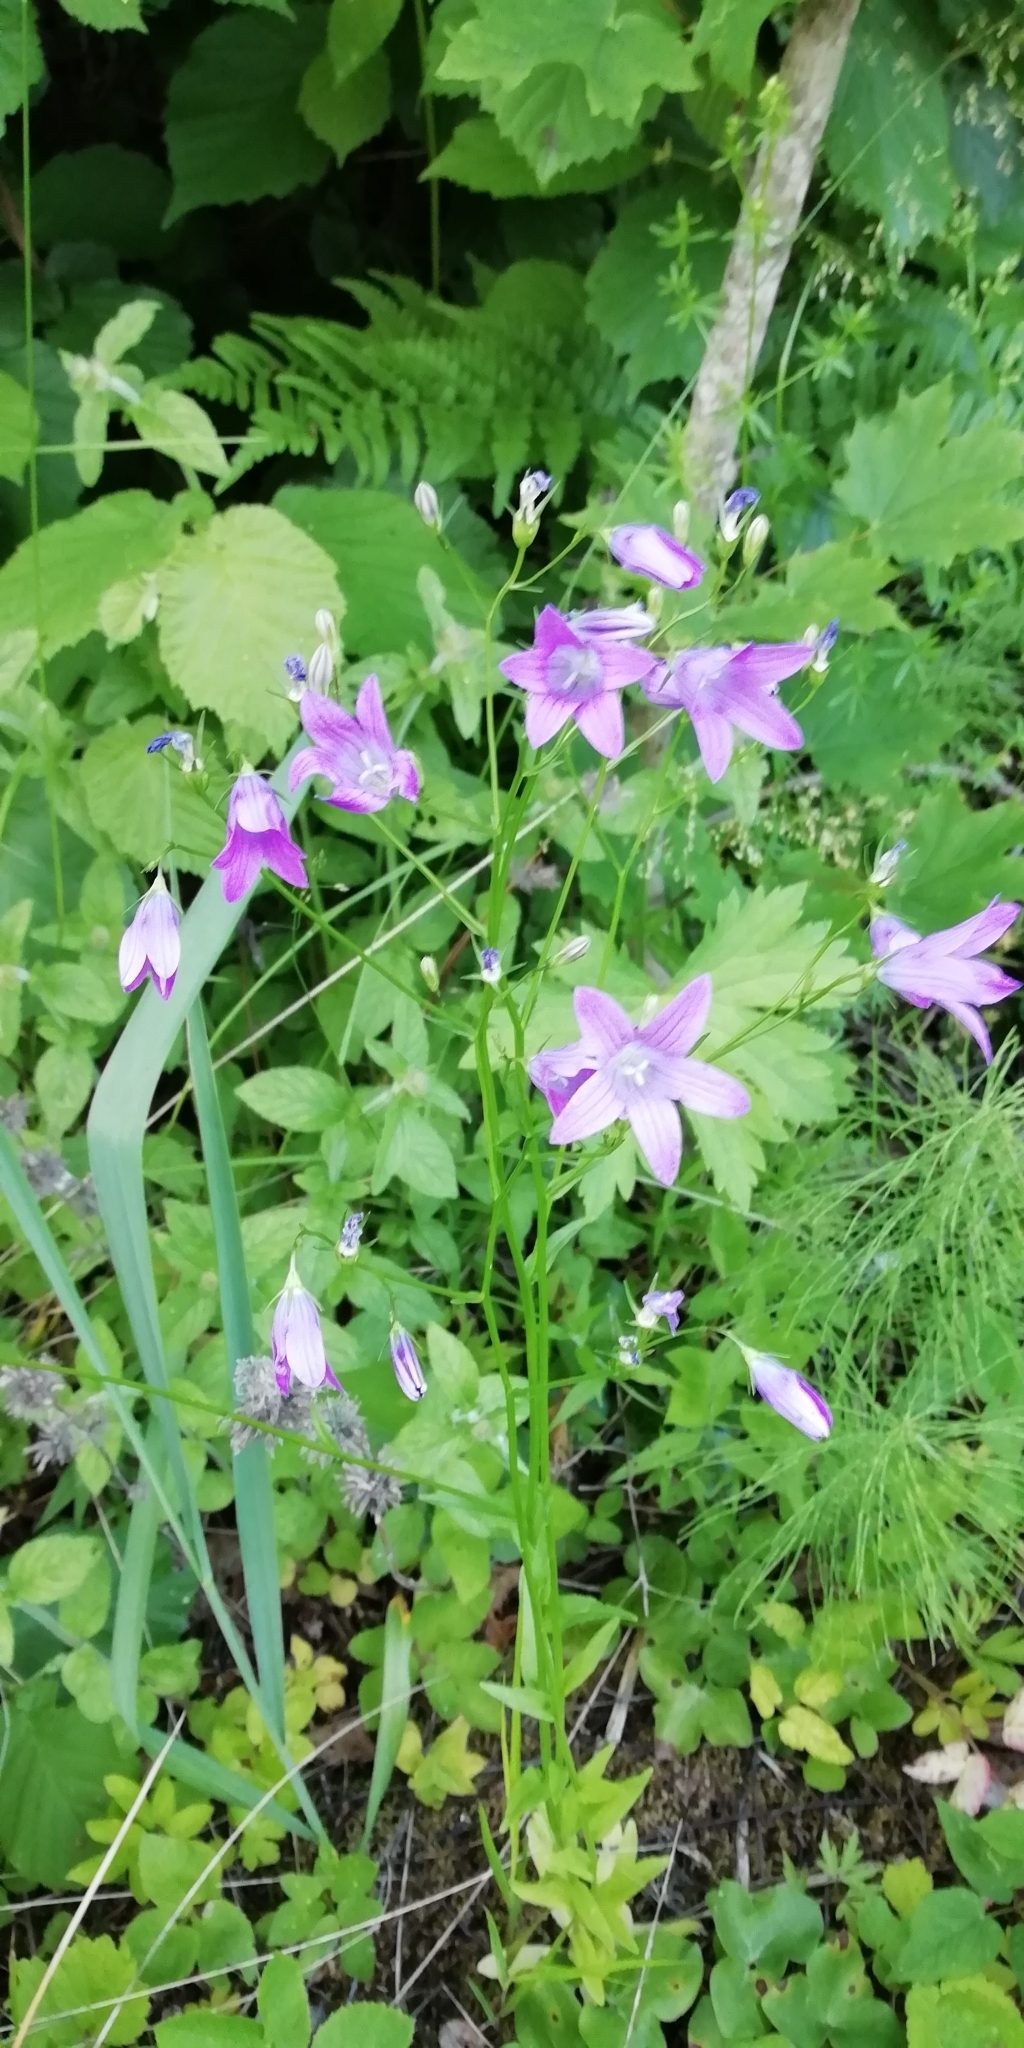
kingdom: Plantae
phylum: Tracheophyta
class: Magnoliopsida
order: Asterales
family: Campanulaceae
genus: Campanula
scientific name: Campanula patula
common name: Spreading bellflower
